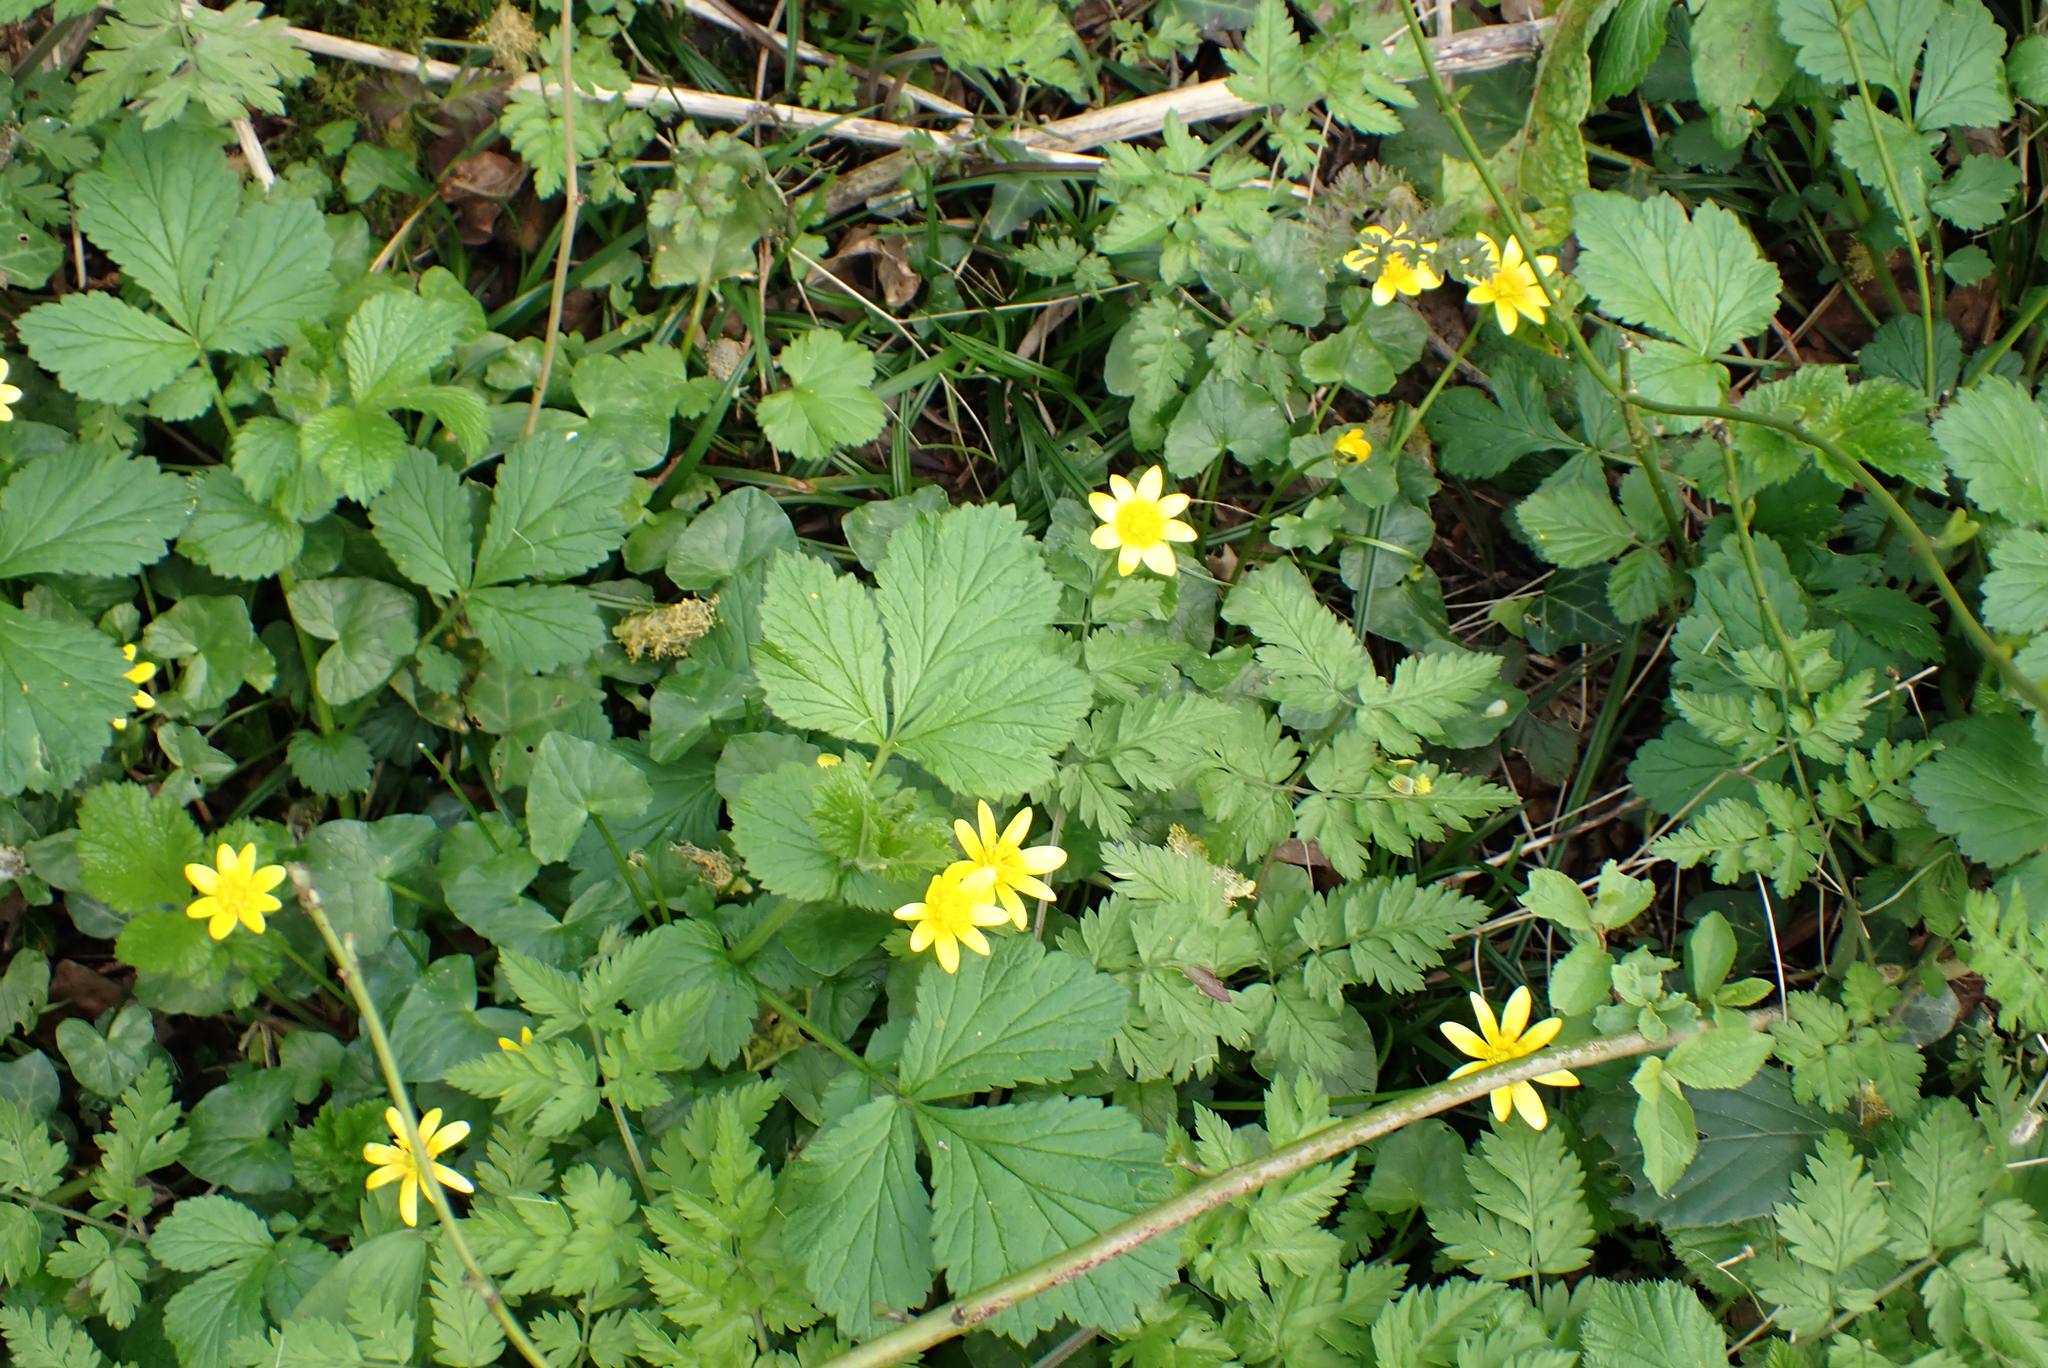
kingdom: Plantae
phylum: Tracheophyta
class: Magnoliopsida
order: Ranunculales
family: Ranunculaceae
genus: Ficaria
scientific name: Ficaria verna
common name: Lesser celandine
